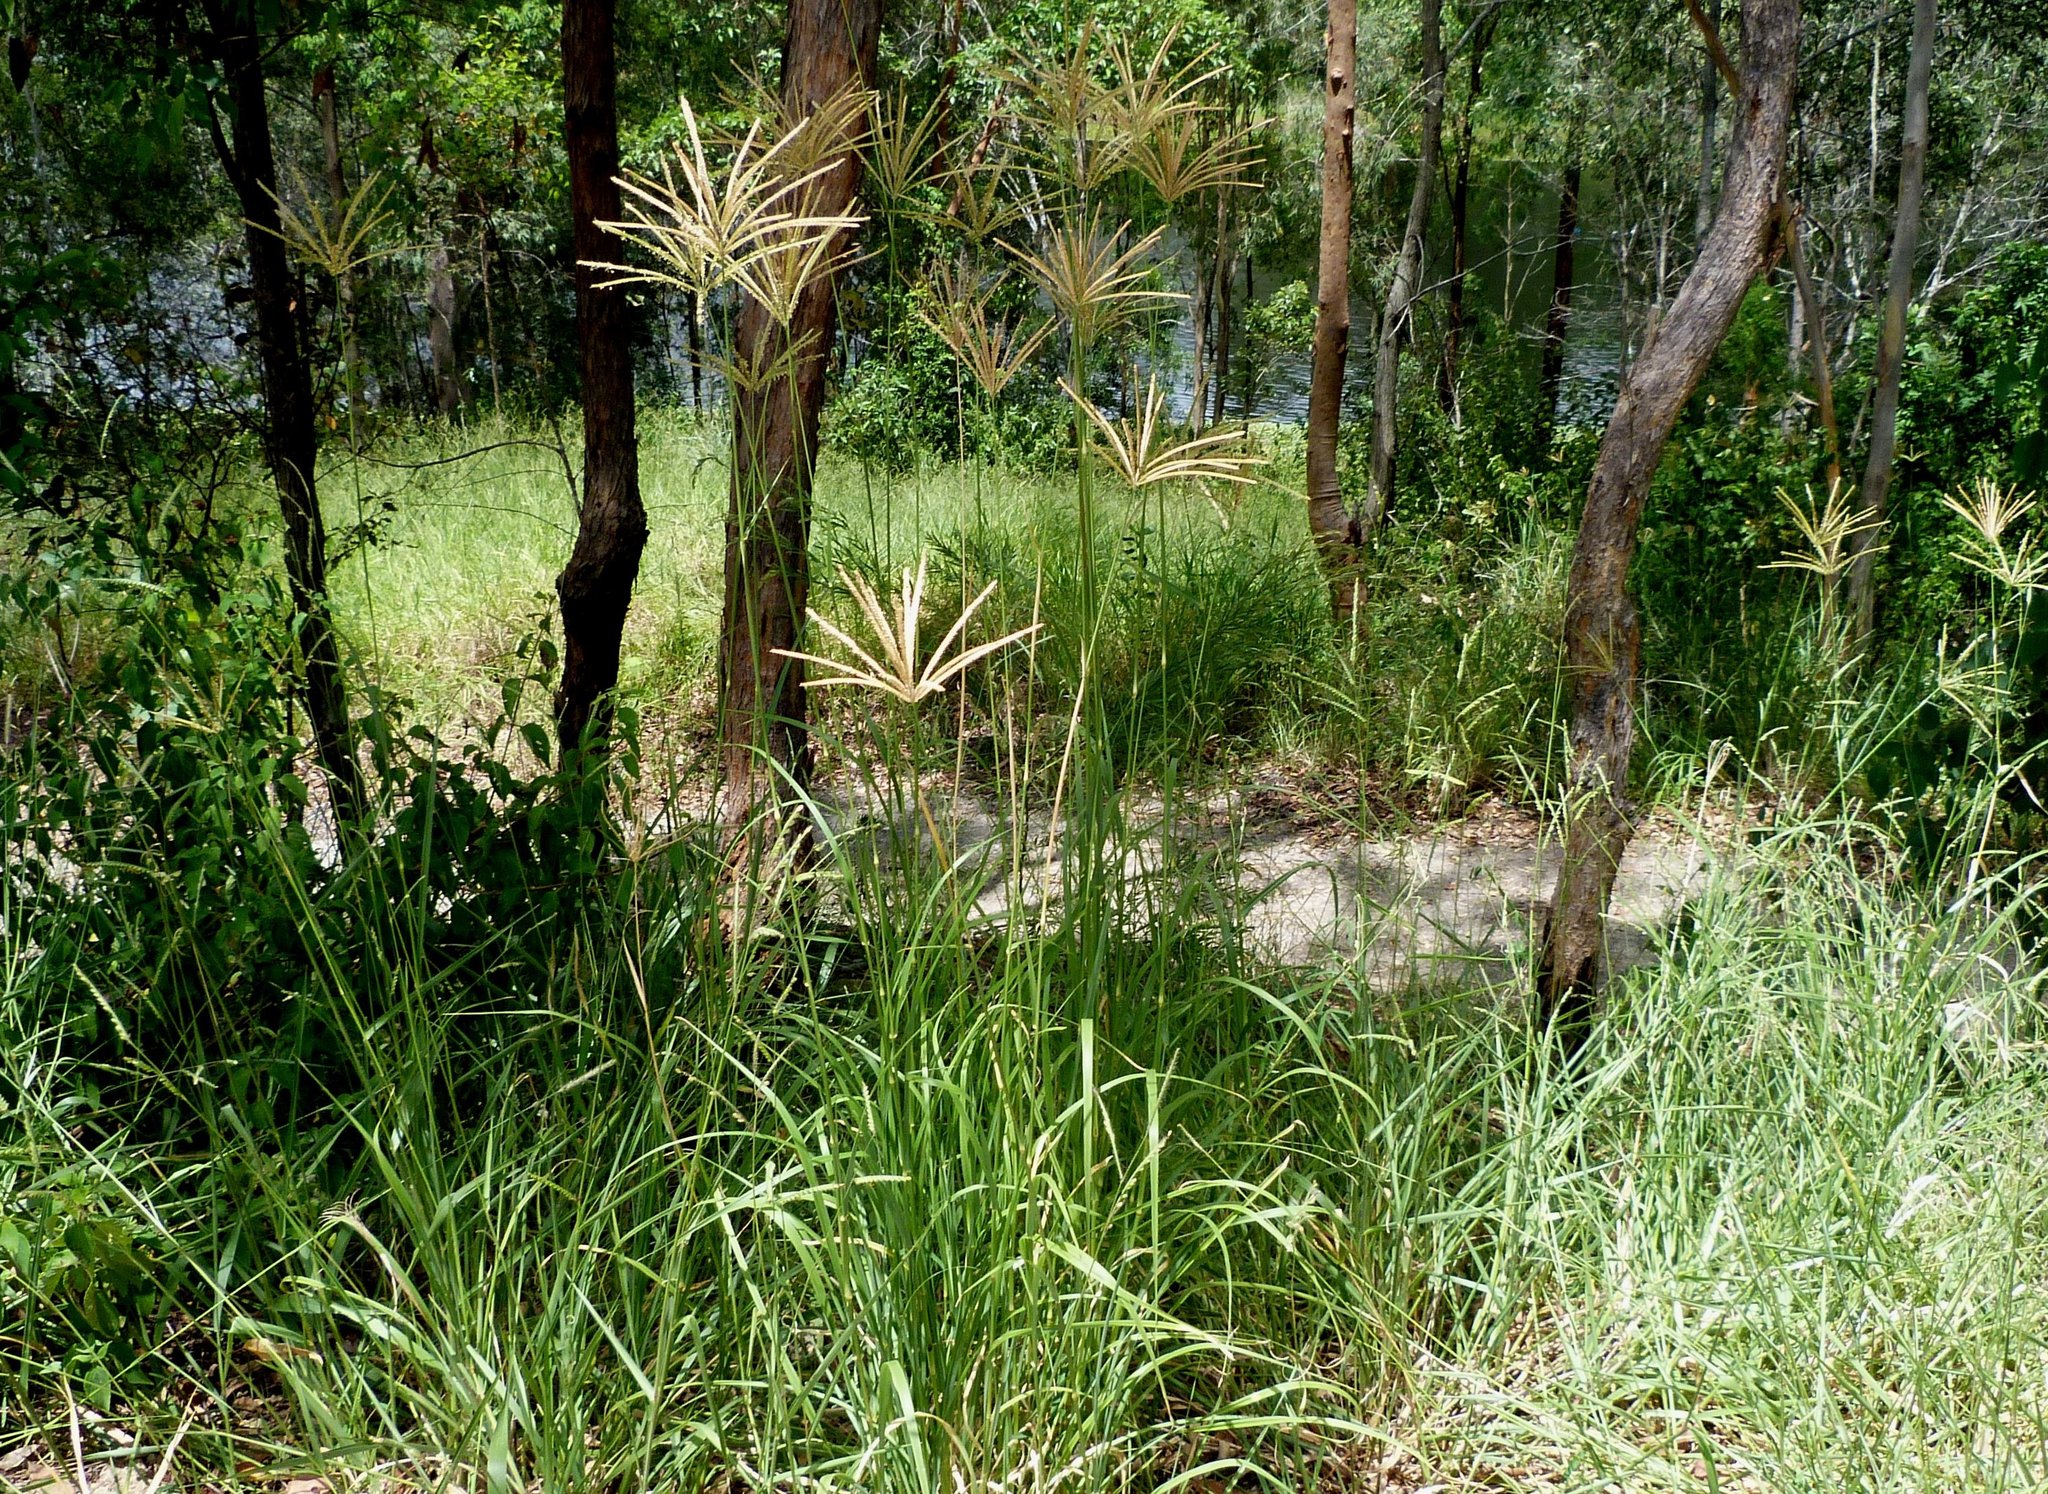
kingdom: Plantae
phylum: Tracheophyta
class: Liliopsida
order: Poales
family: Poaceae
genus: Chloris
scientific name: Chloris gayana
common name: Rhodes grass
